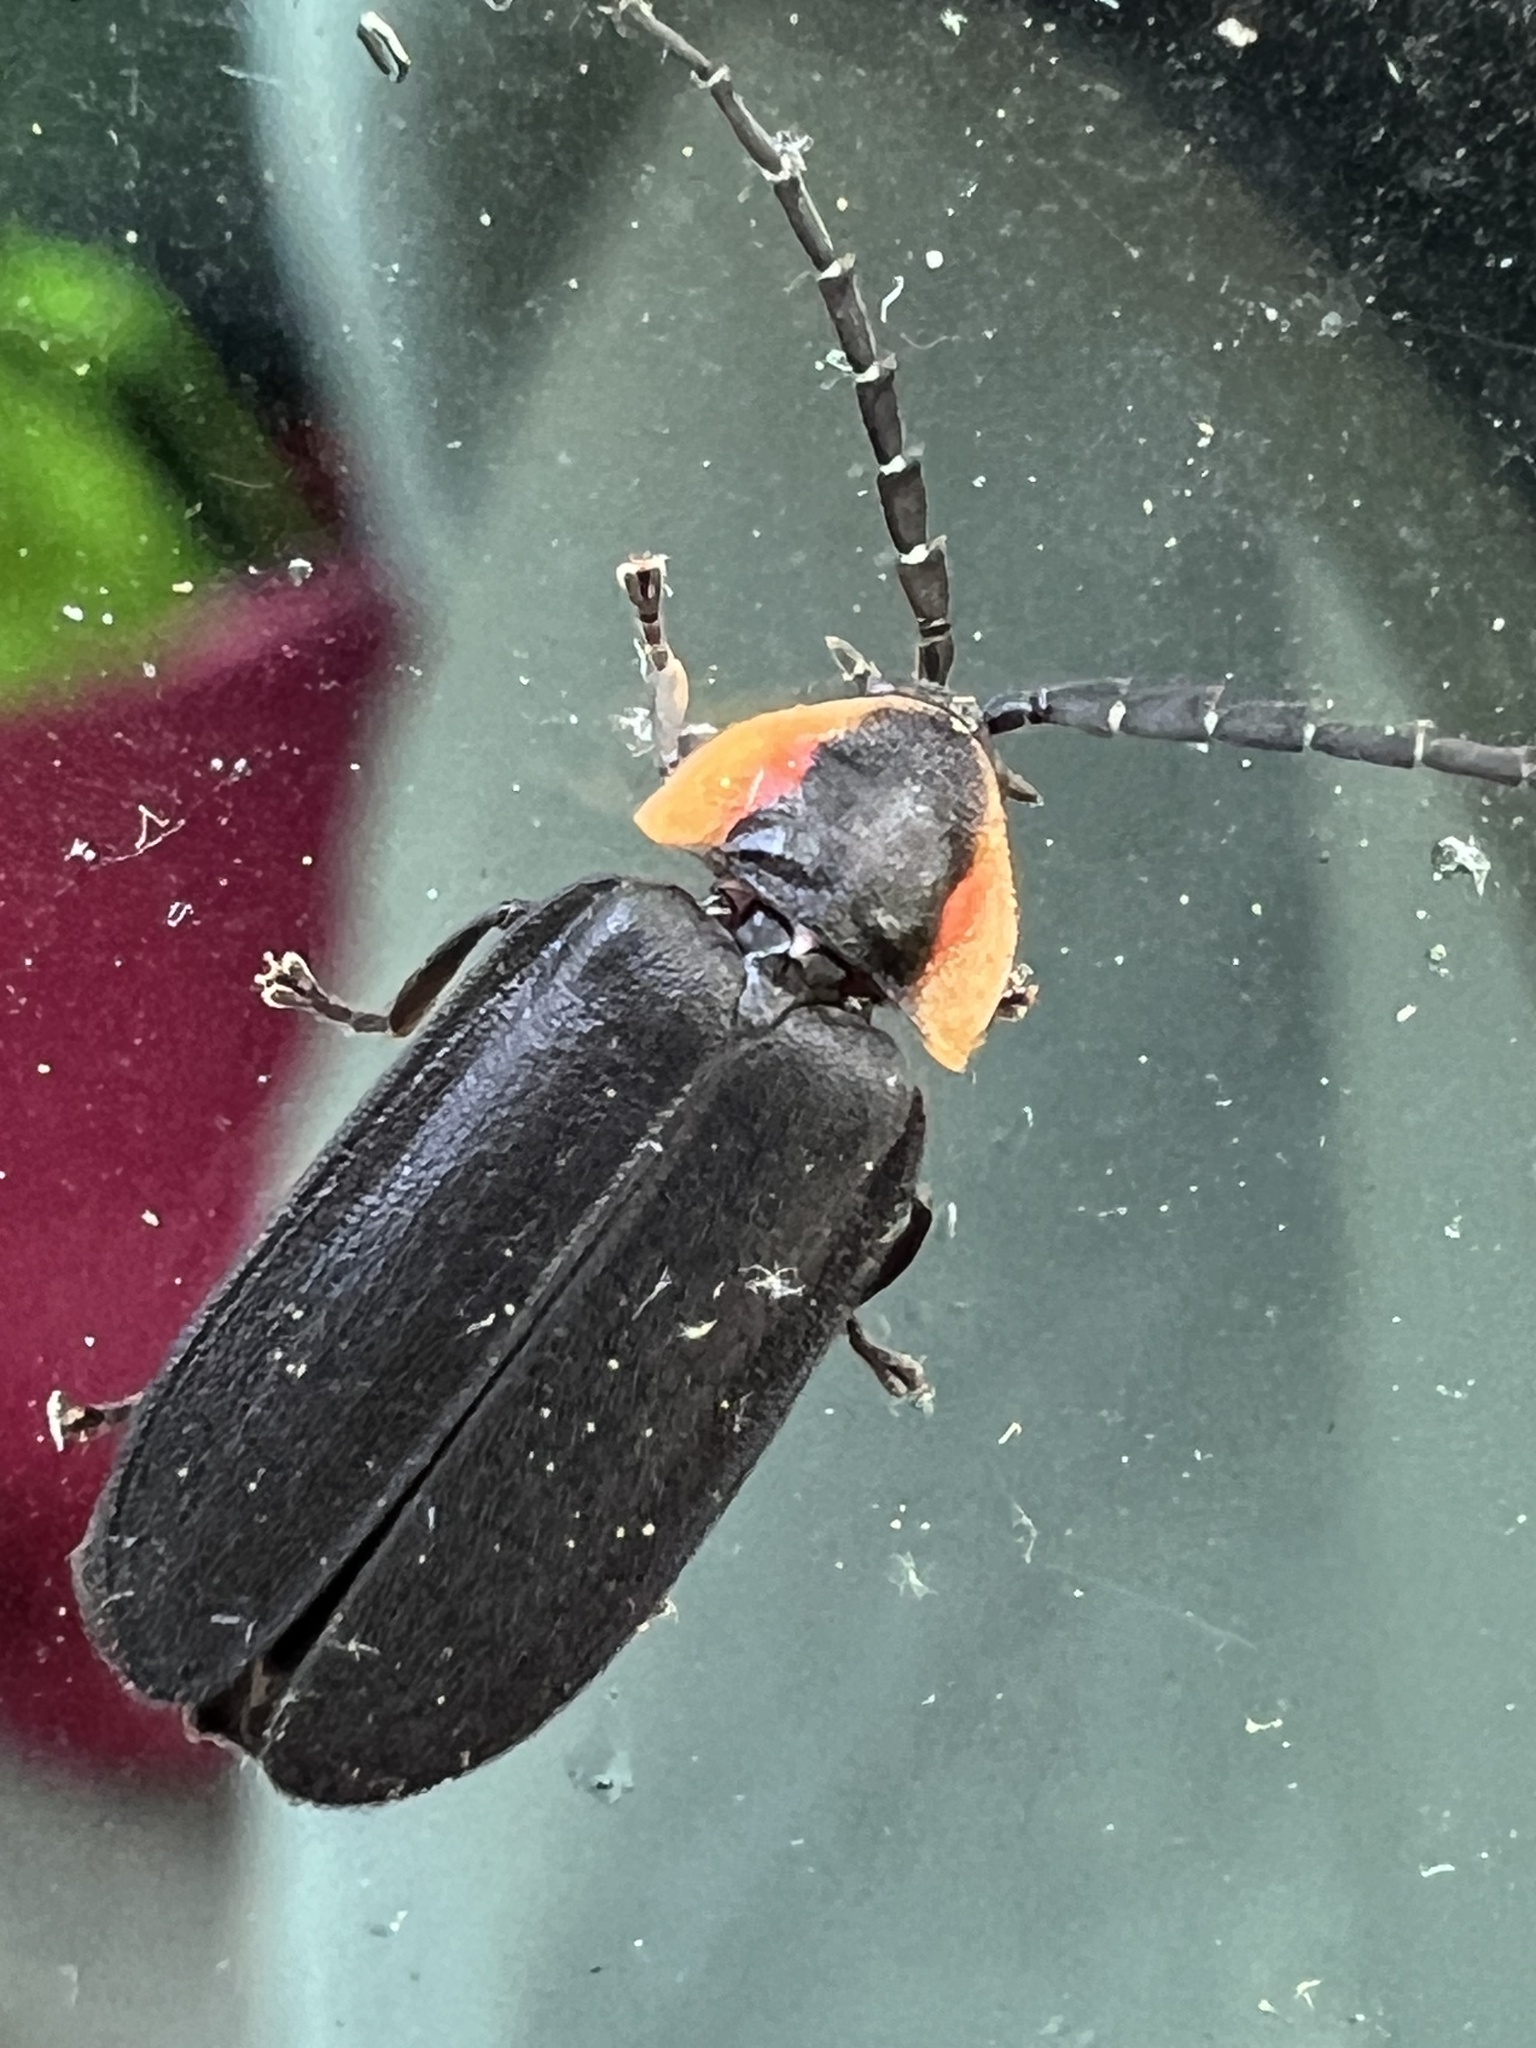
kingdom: Animalia
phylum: Arthropoda
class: Insecta
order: Coleoptera
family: Lampyridae
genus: Lucidota
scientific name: Lucidota atra
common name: Black firefly
